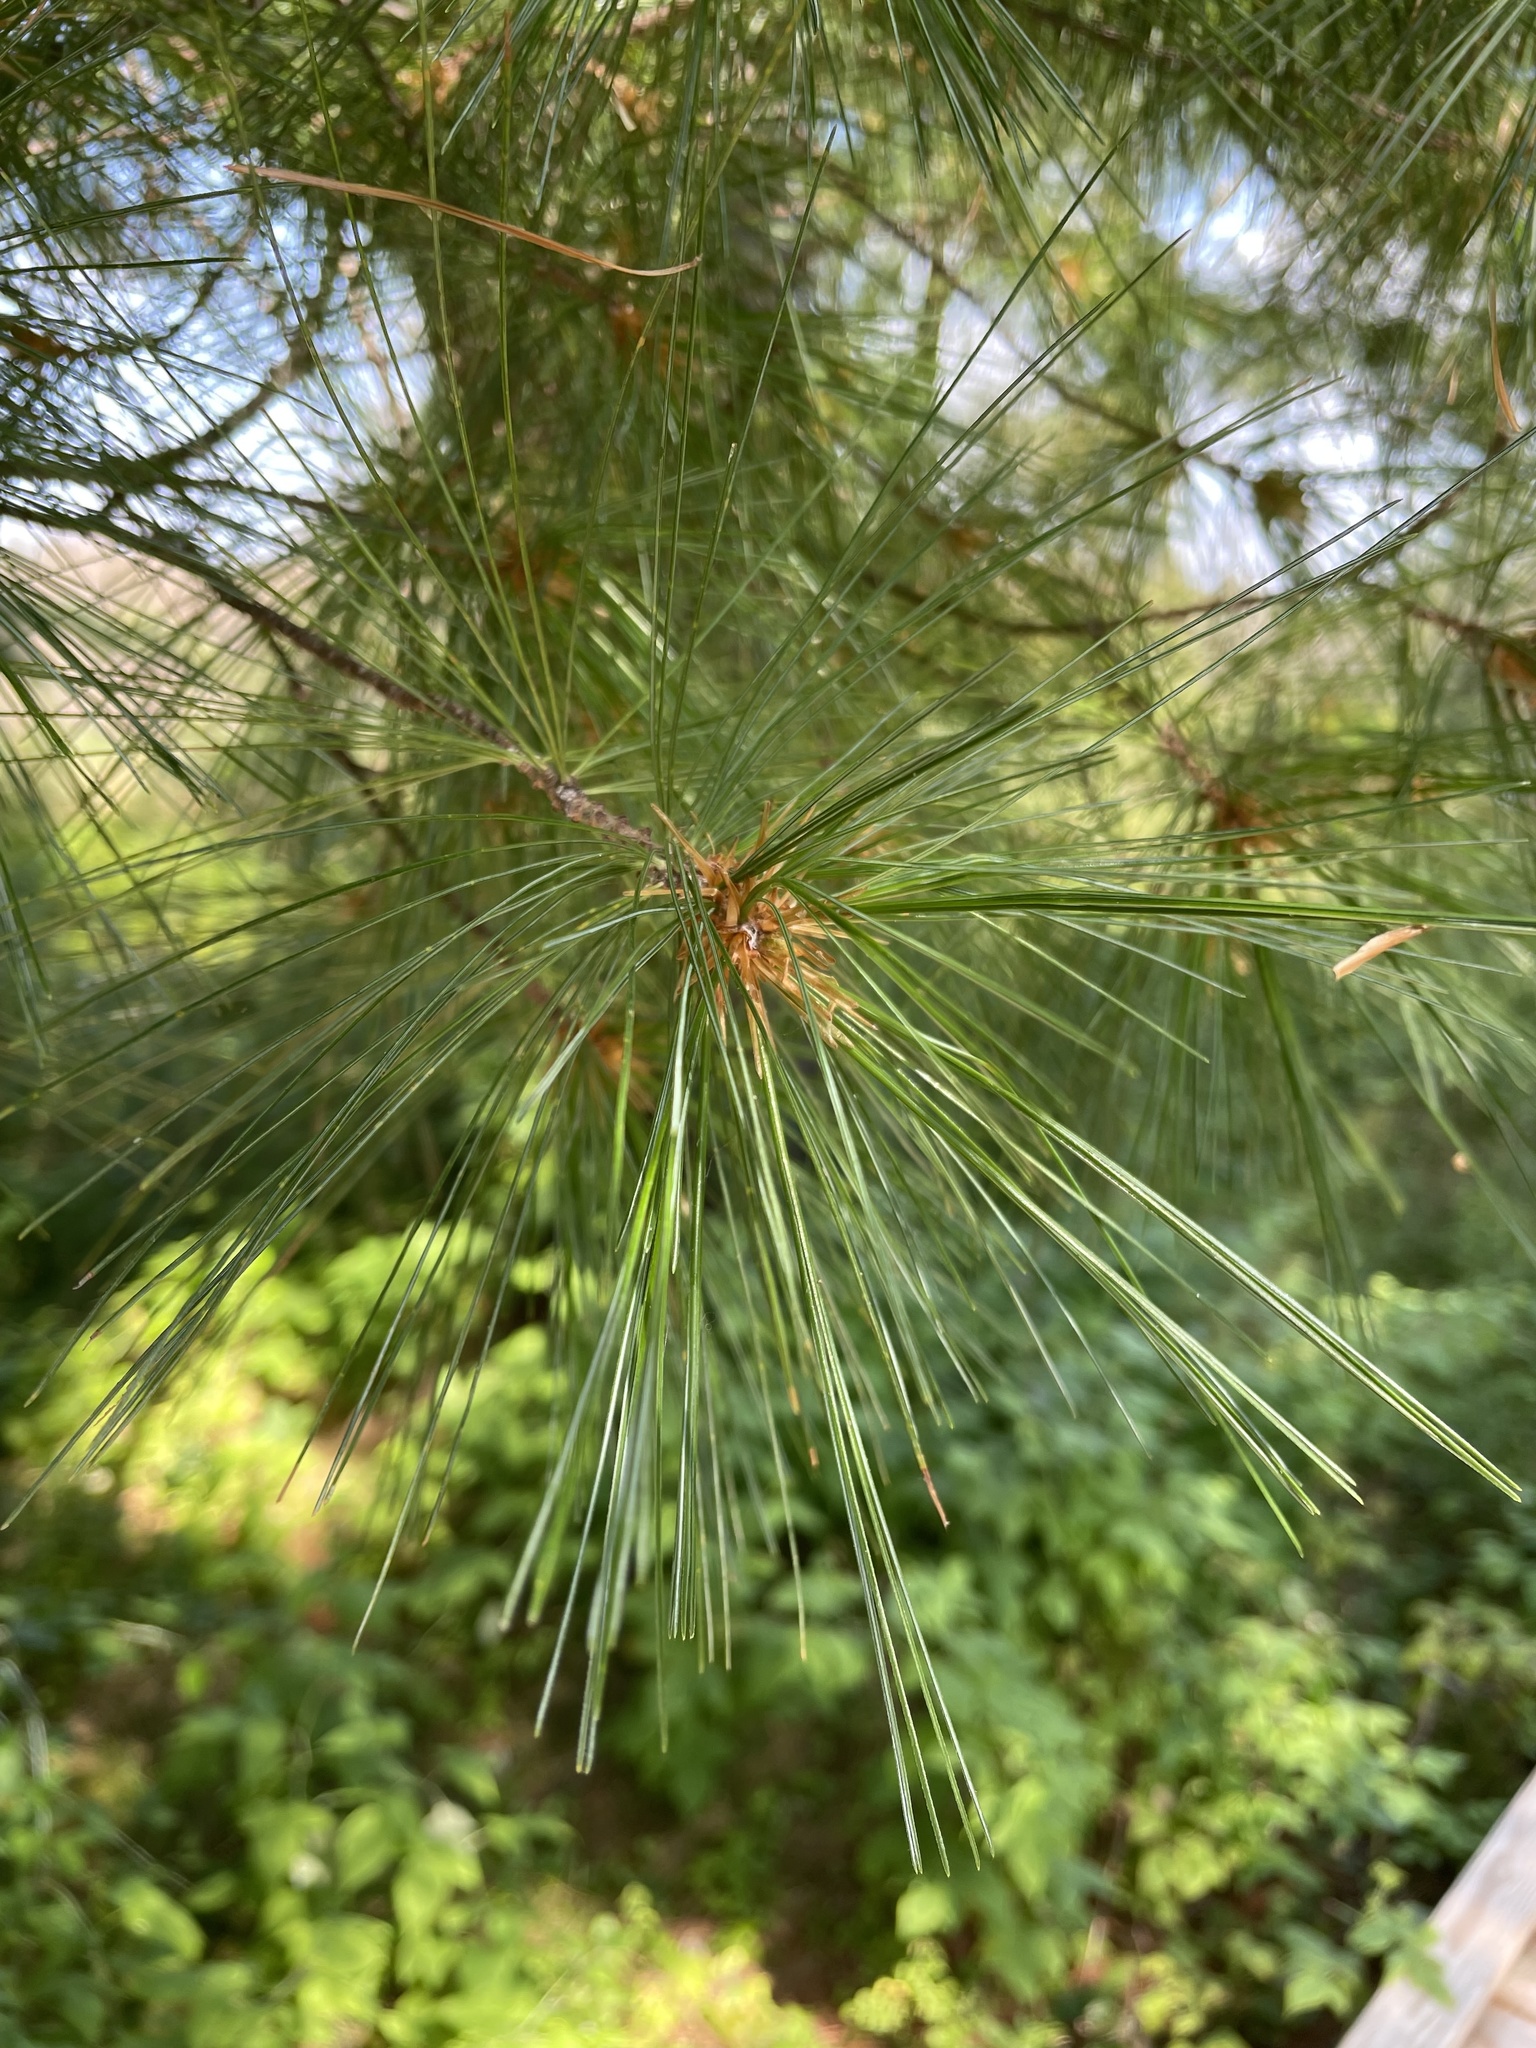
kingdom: Plantae
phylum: Tracheophyta
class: Pinopsida
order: Pinales
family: Pinaceae
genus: Pinus
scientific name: Pinus strobus
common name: Weymouth pine
